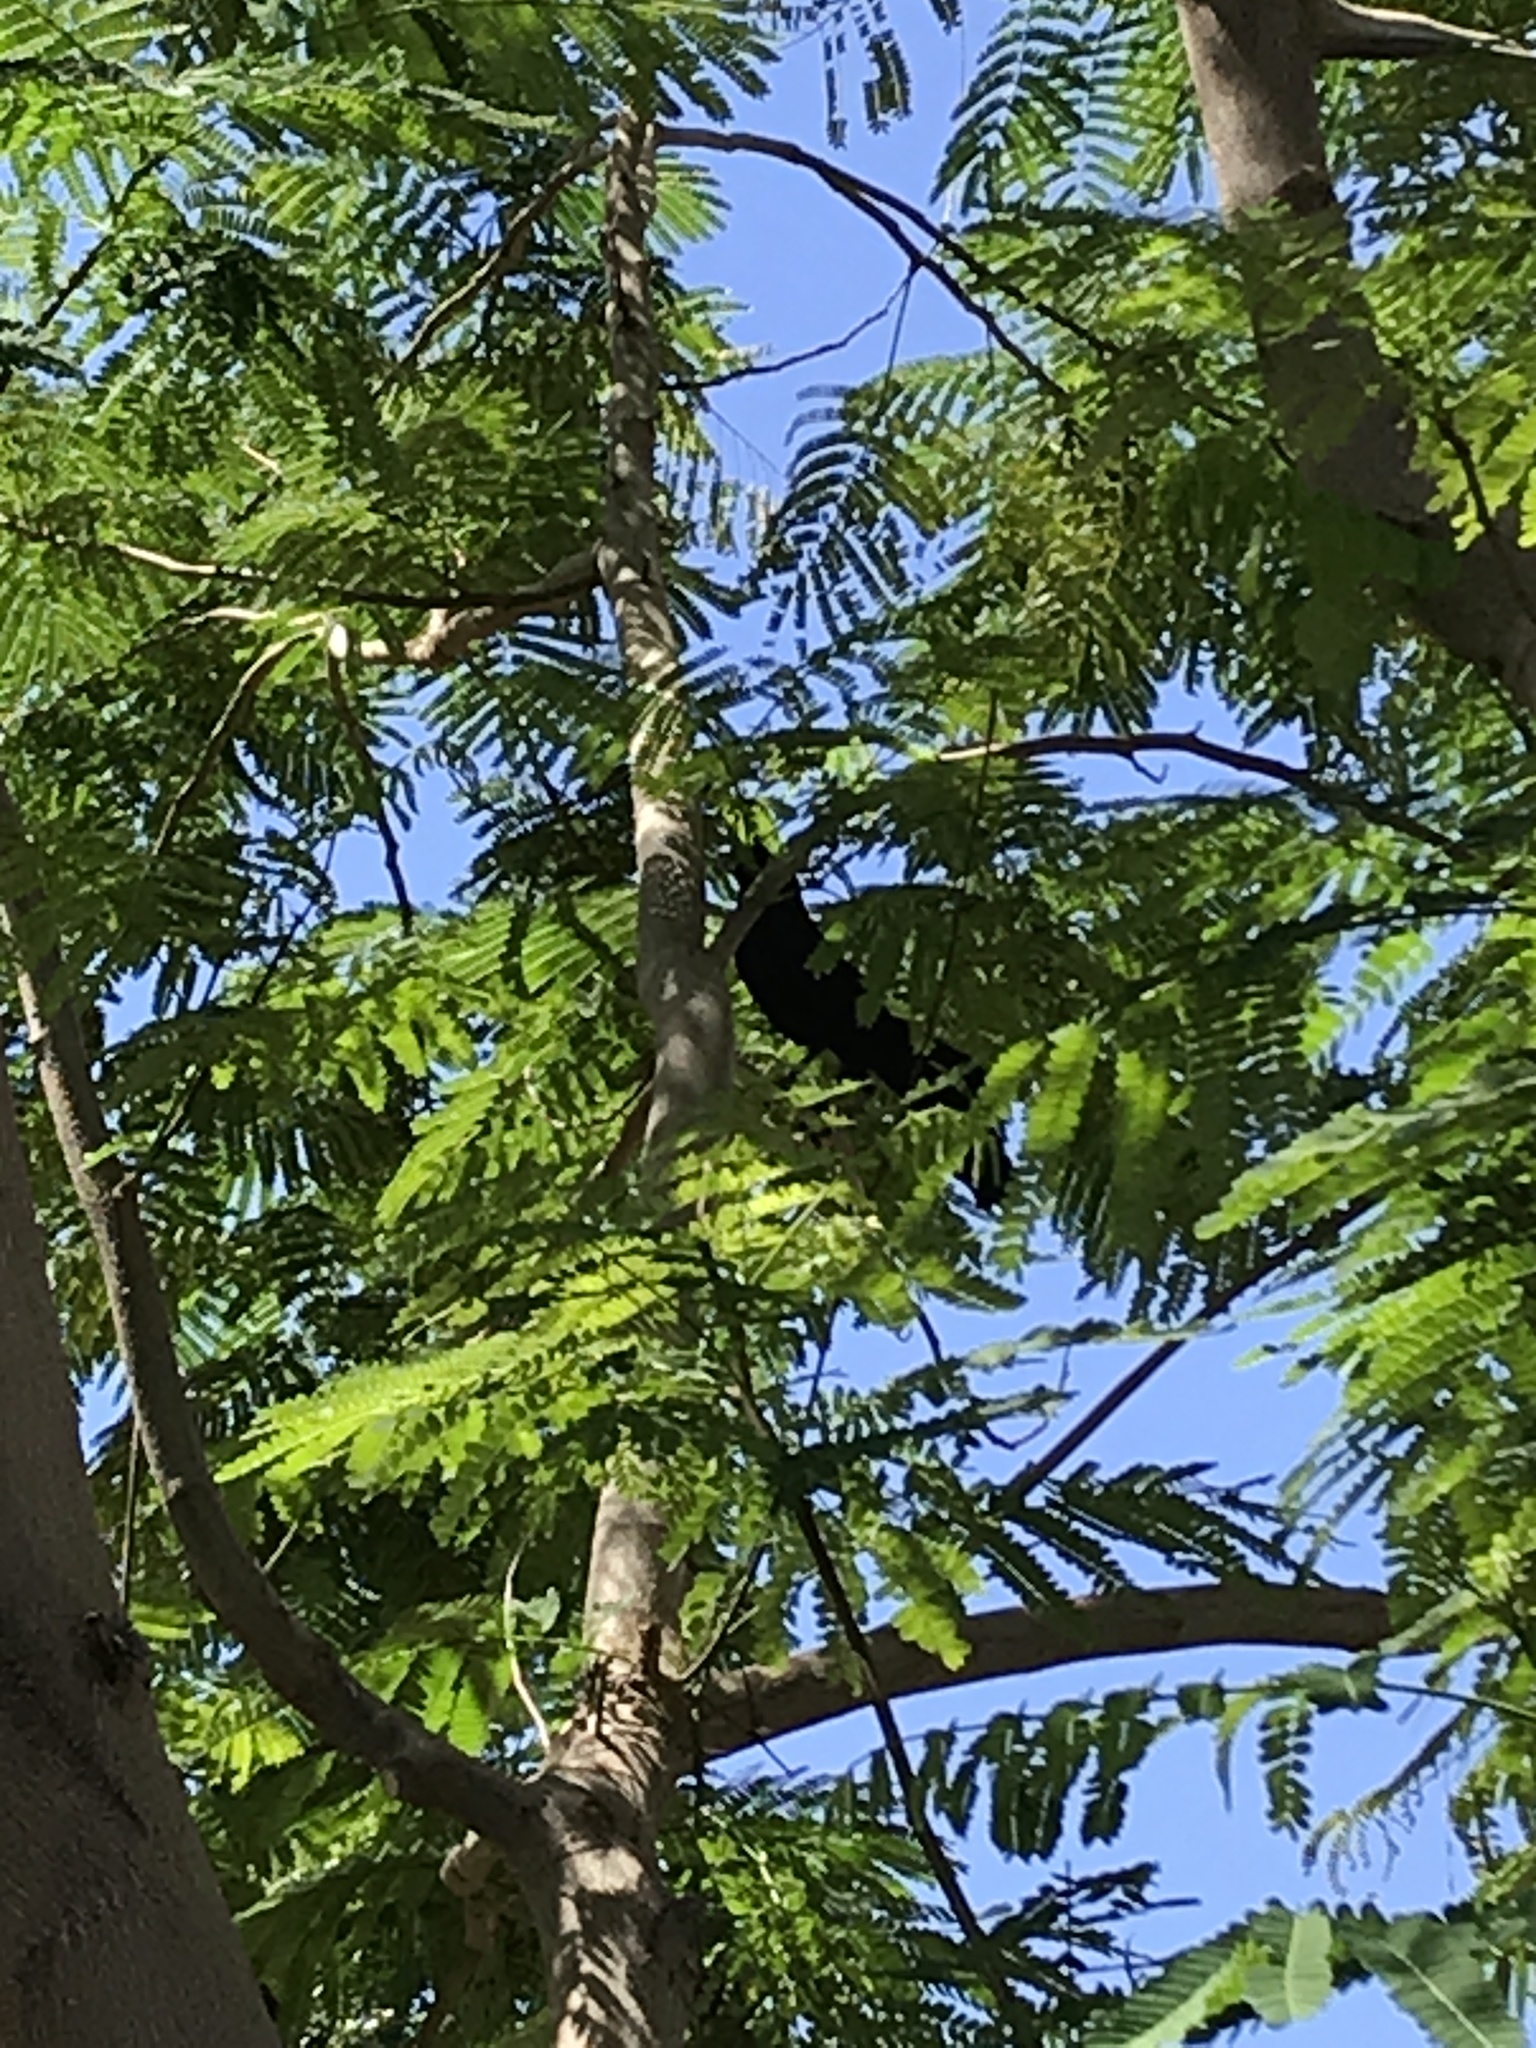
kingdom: Animalia
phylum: Chordata
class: Aves
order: Passeriformes
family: Icteridae
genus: Quiscalus
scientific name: Quiscalus mexicanus
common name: Great-tailed grackle
